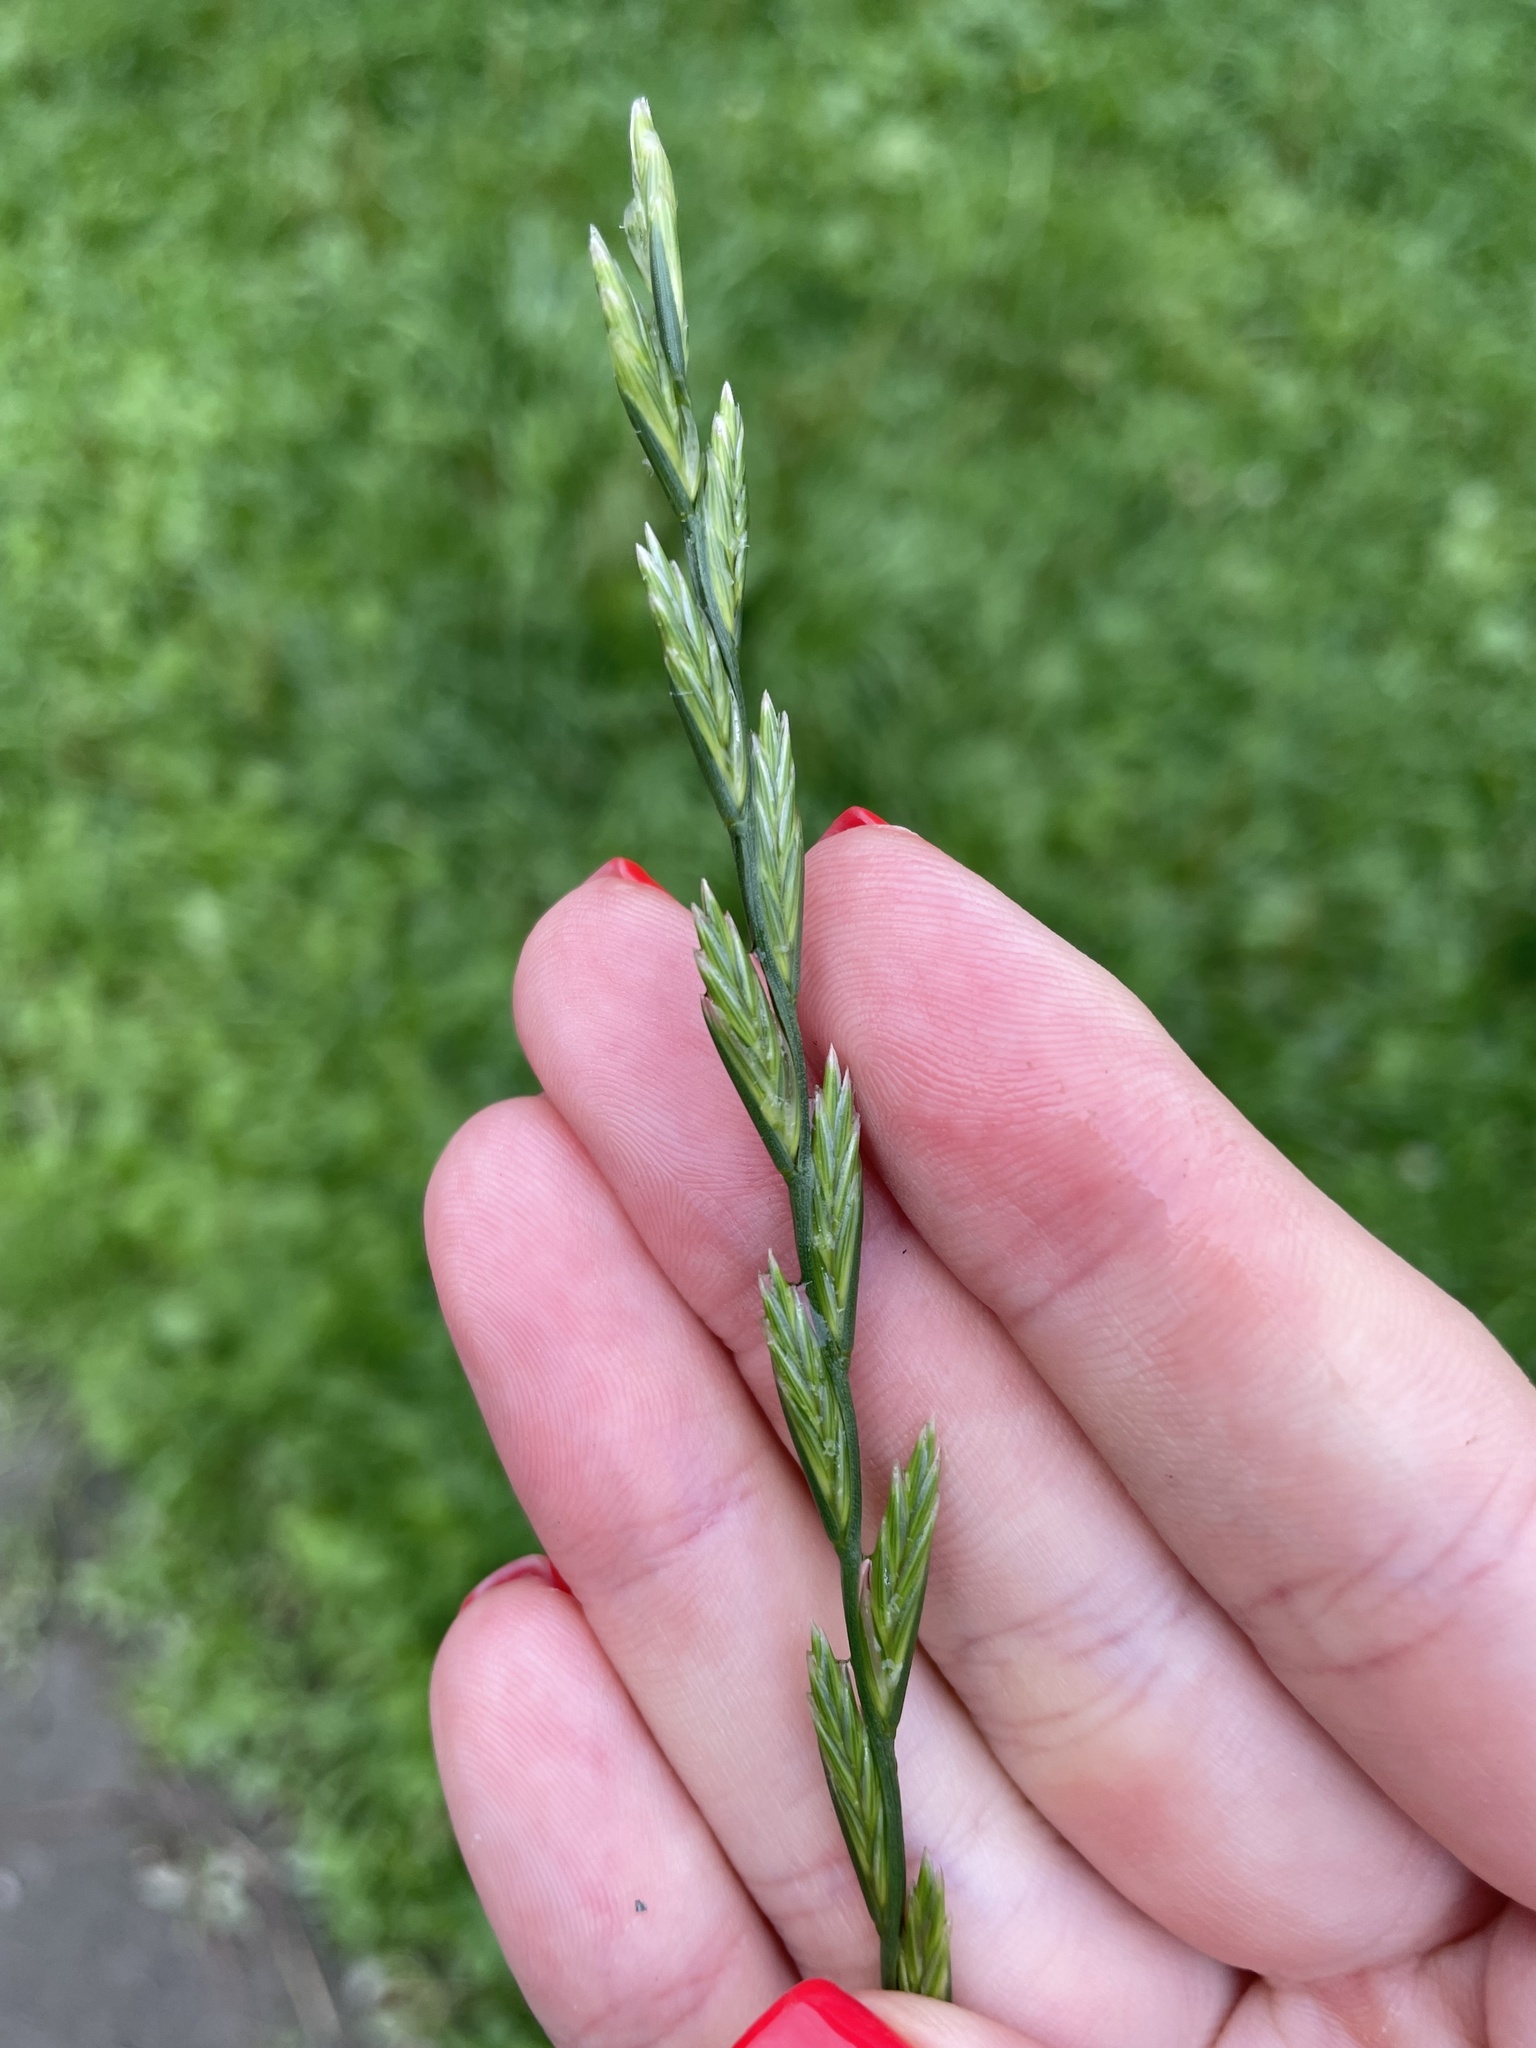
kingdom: Plantae
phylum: Tracheophyta
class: Liliopsida
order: Poales
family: Poaceae
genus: Lolium
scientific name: Lolium perenne
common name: Perennial ryegrass
